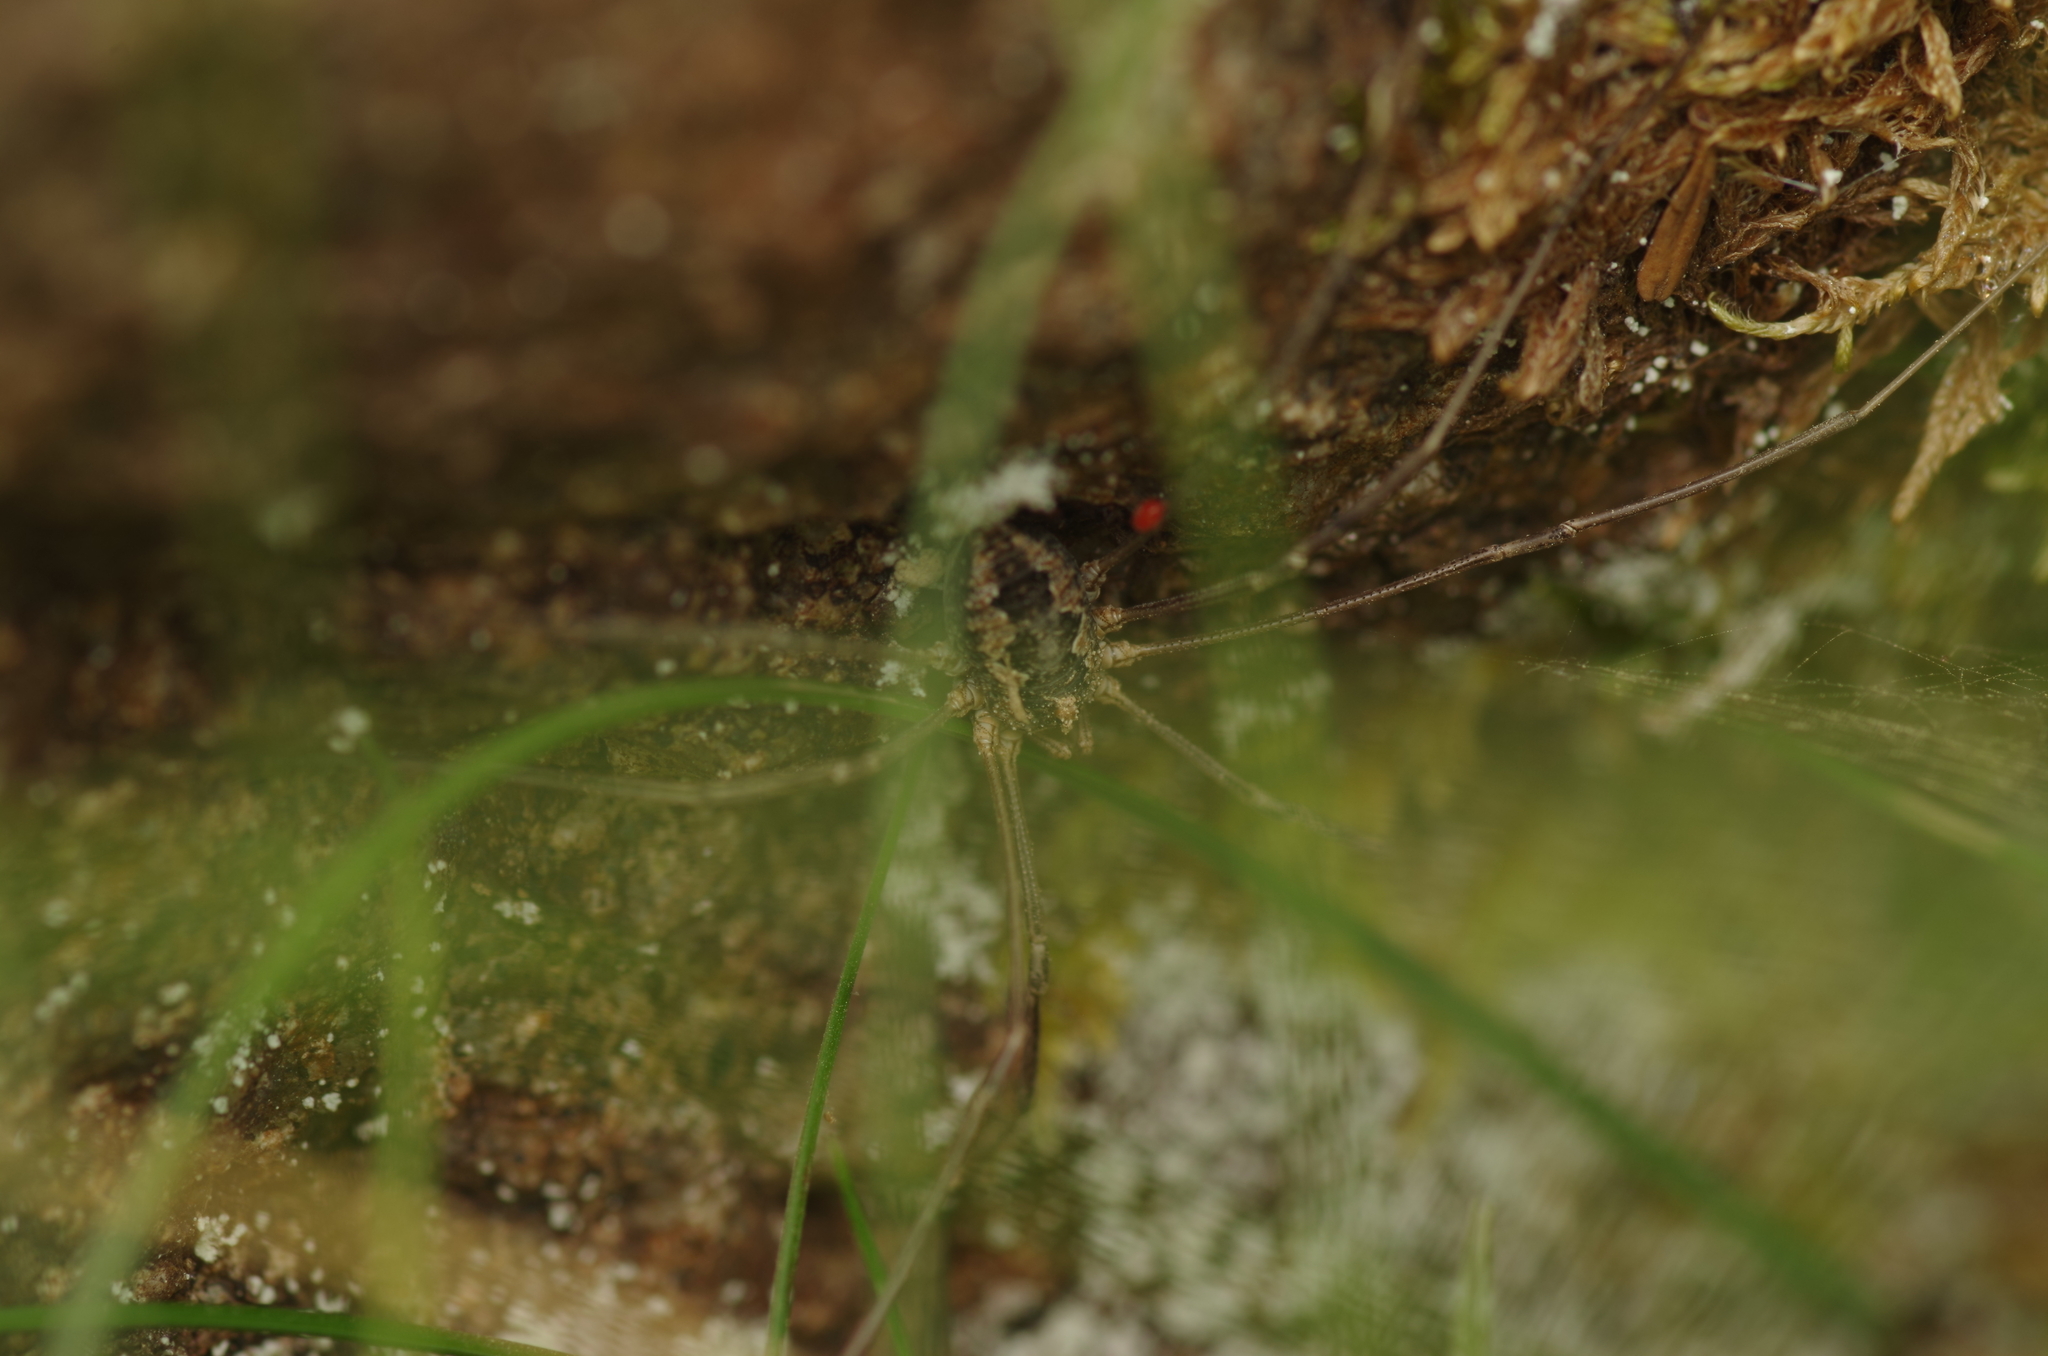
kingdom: Animalia
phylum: Arthropoda
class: Arachnida
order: Opiliones
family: Phalangiidae
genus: Phalangium
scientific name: Phalangium opilio
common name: Daddy longleg
